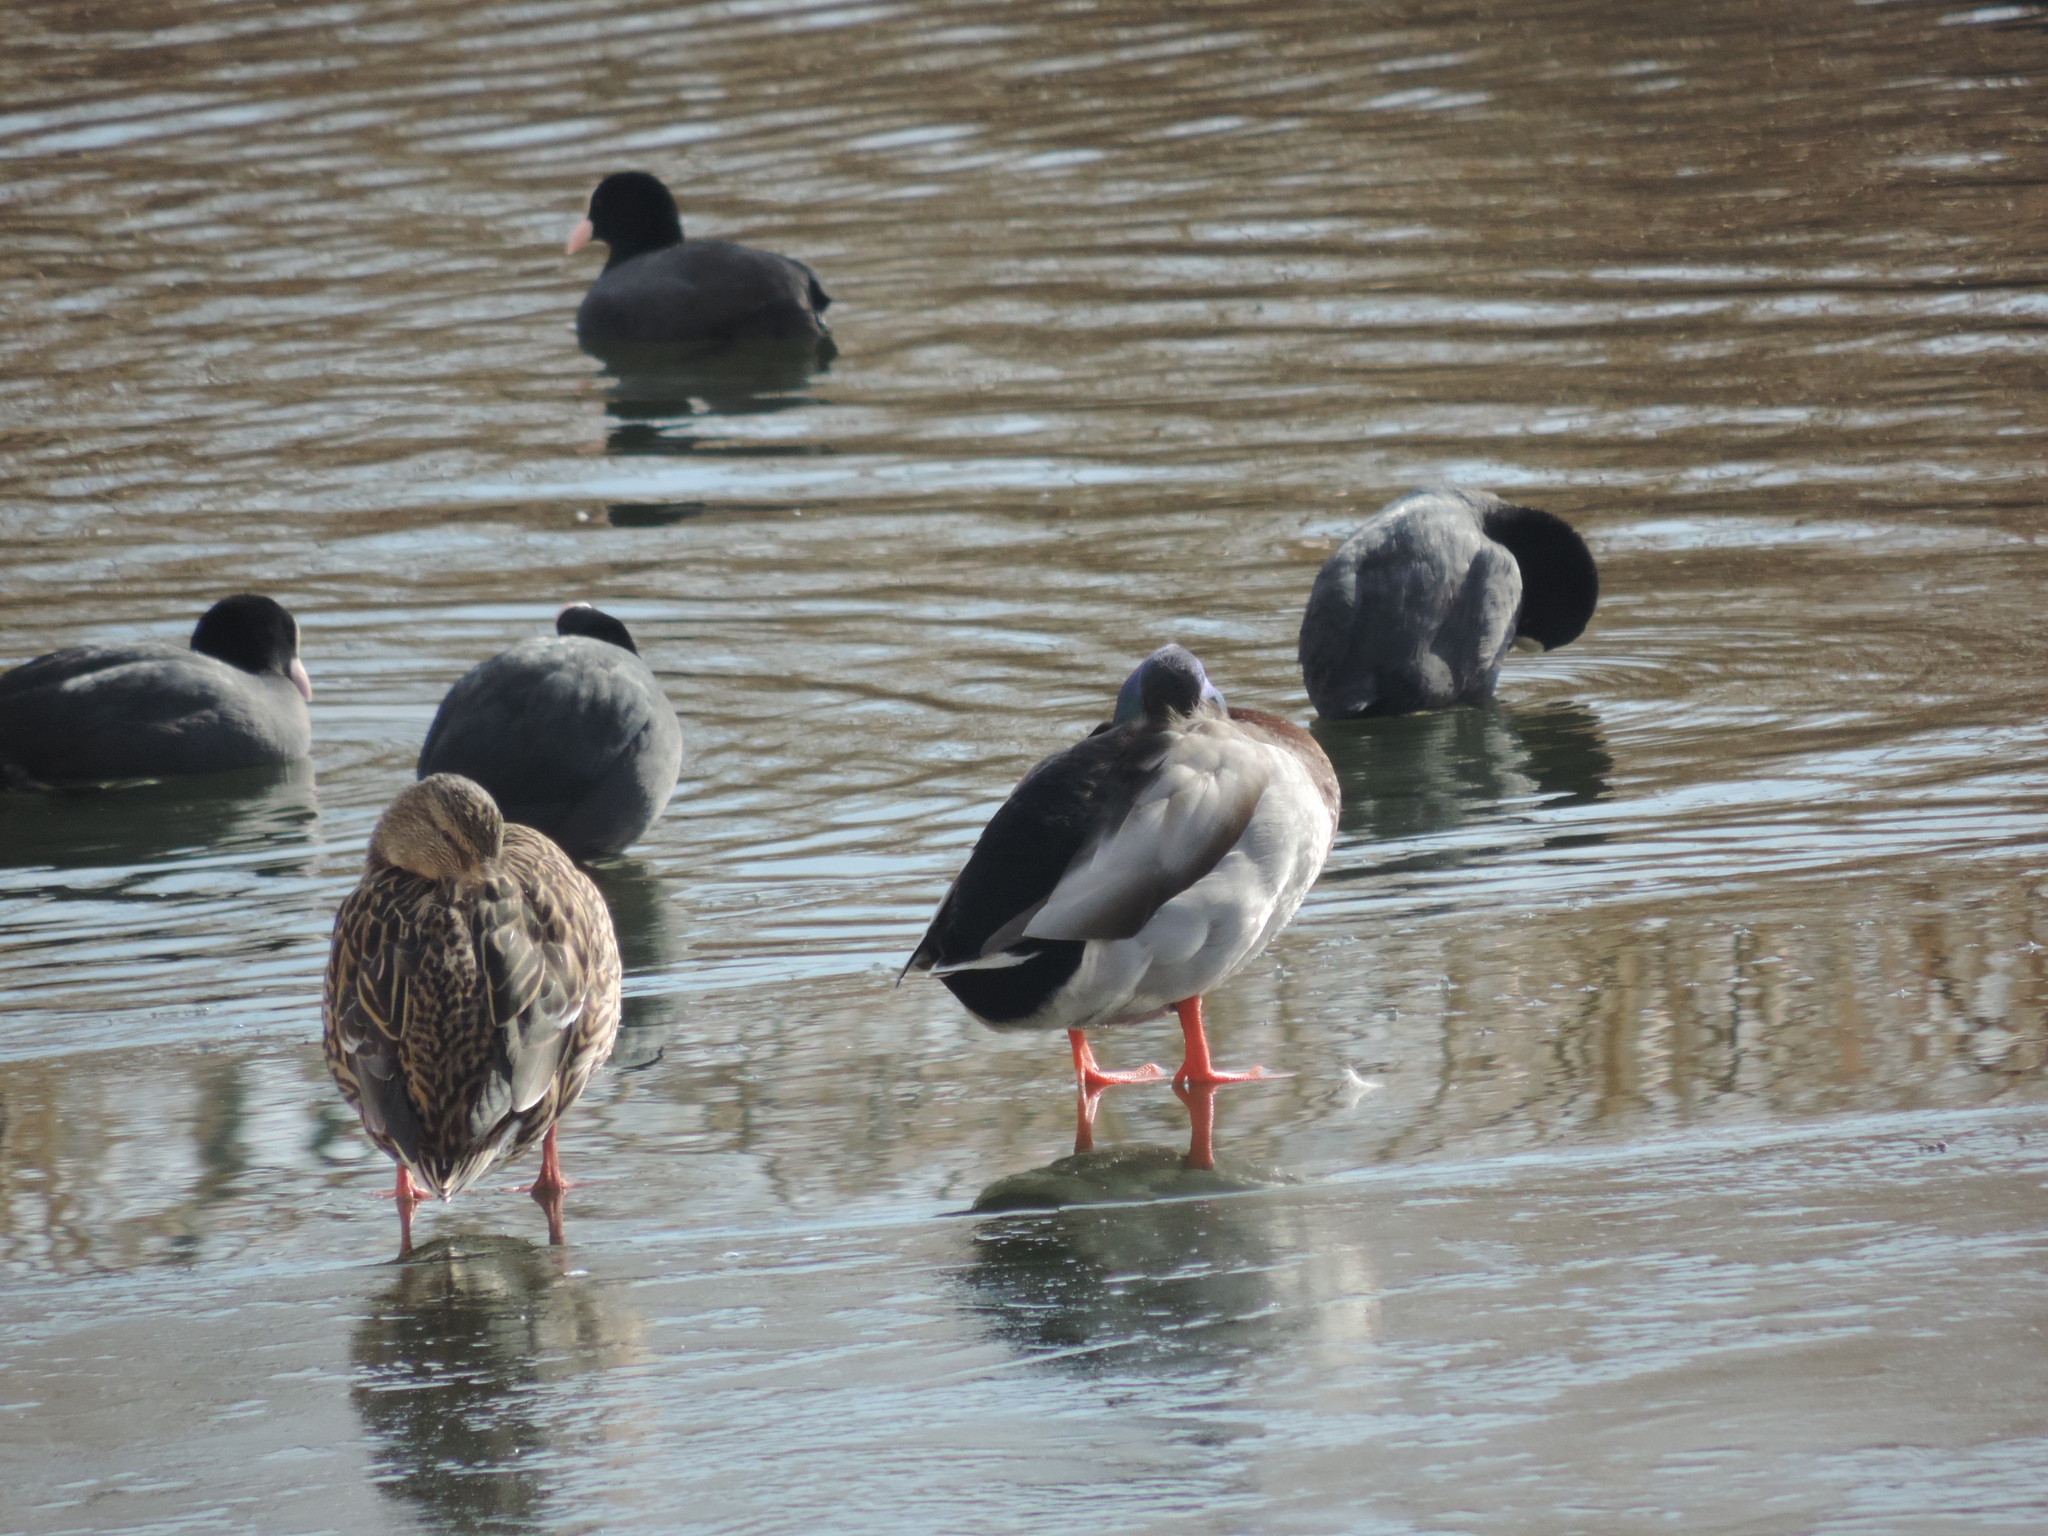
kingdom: Animalia
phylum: Chordata
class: Aves
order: Anseriformes
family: Anatidae
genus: Anas
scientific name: Anas platyrhynchos
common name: Mallard
